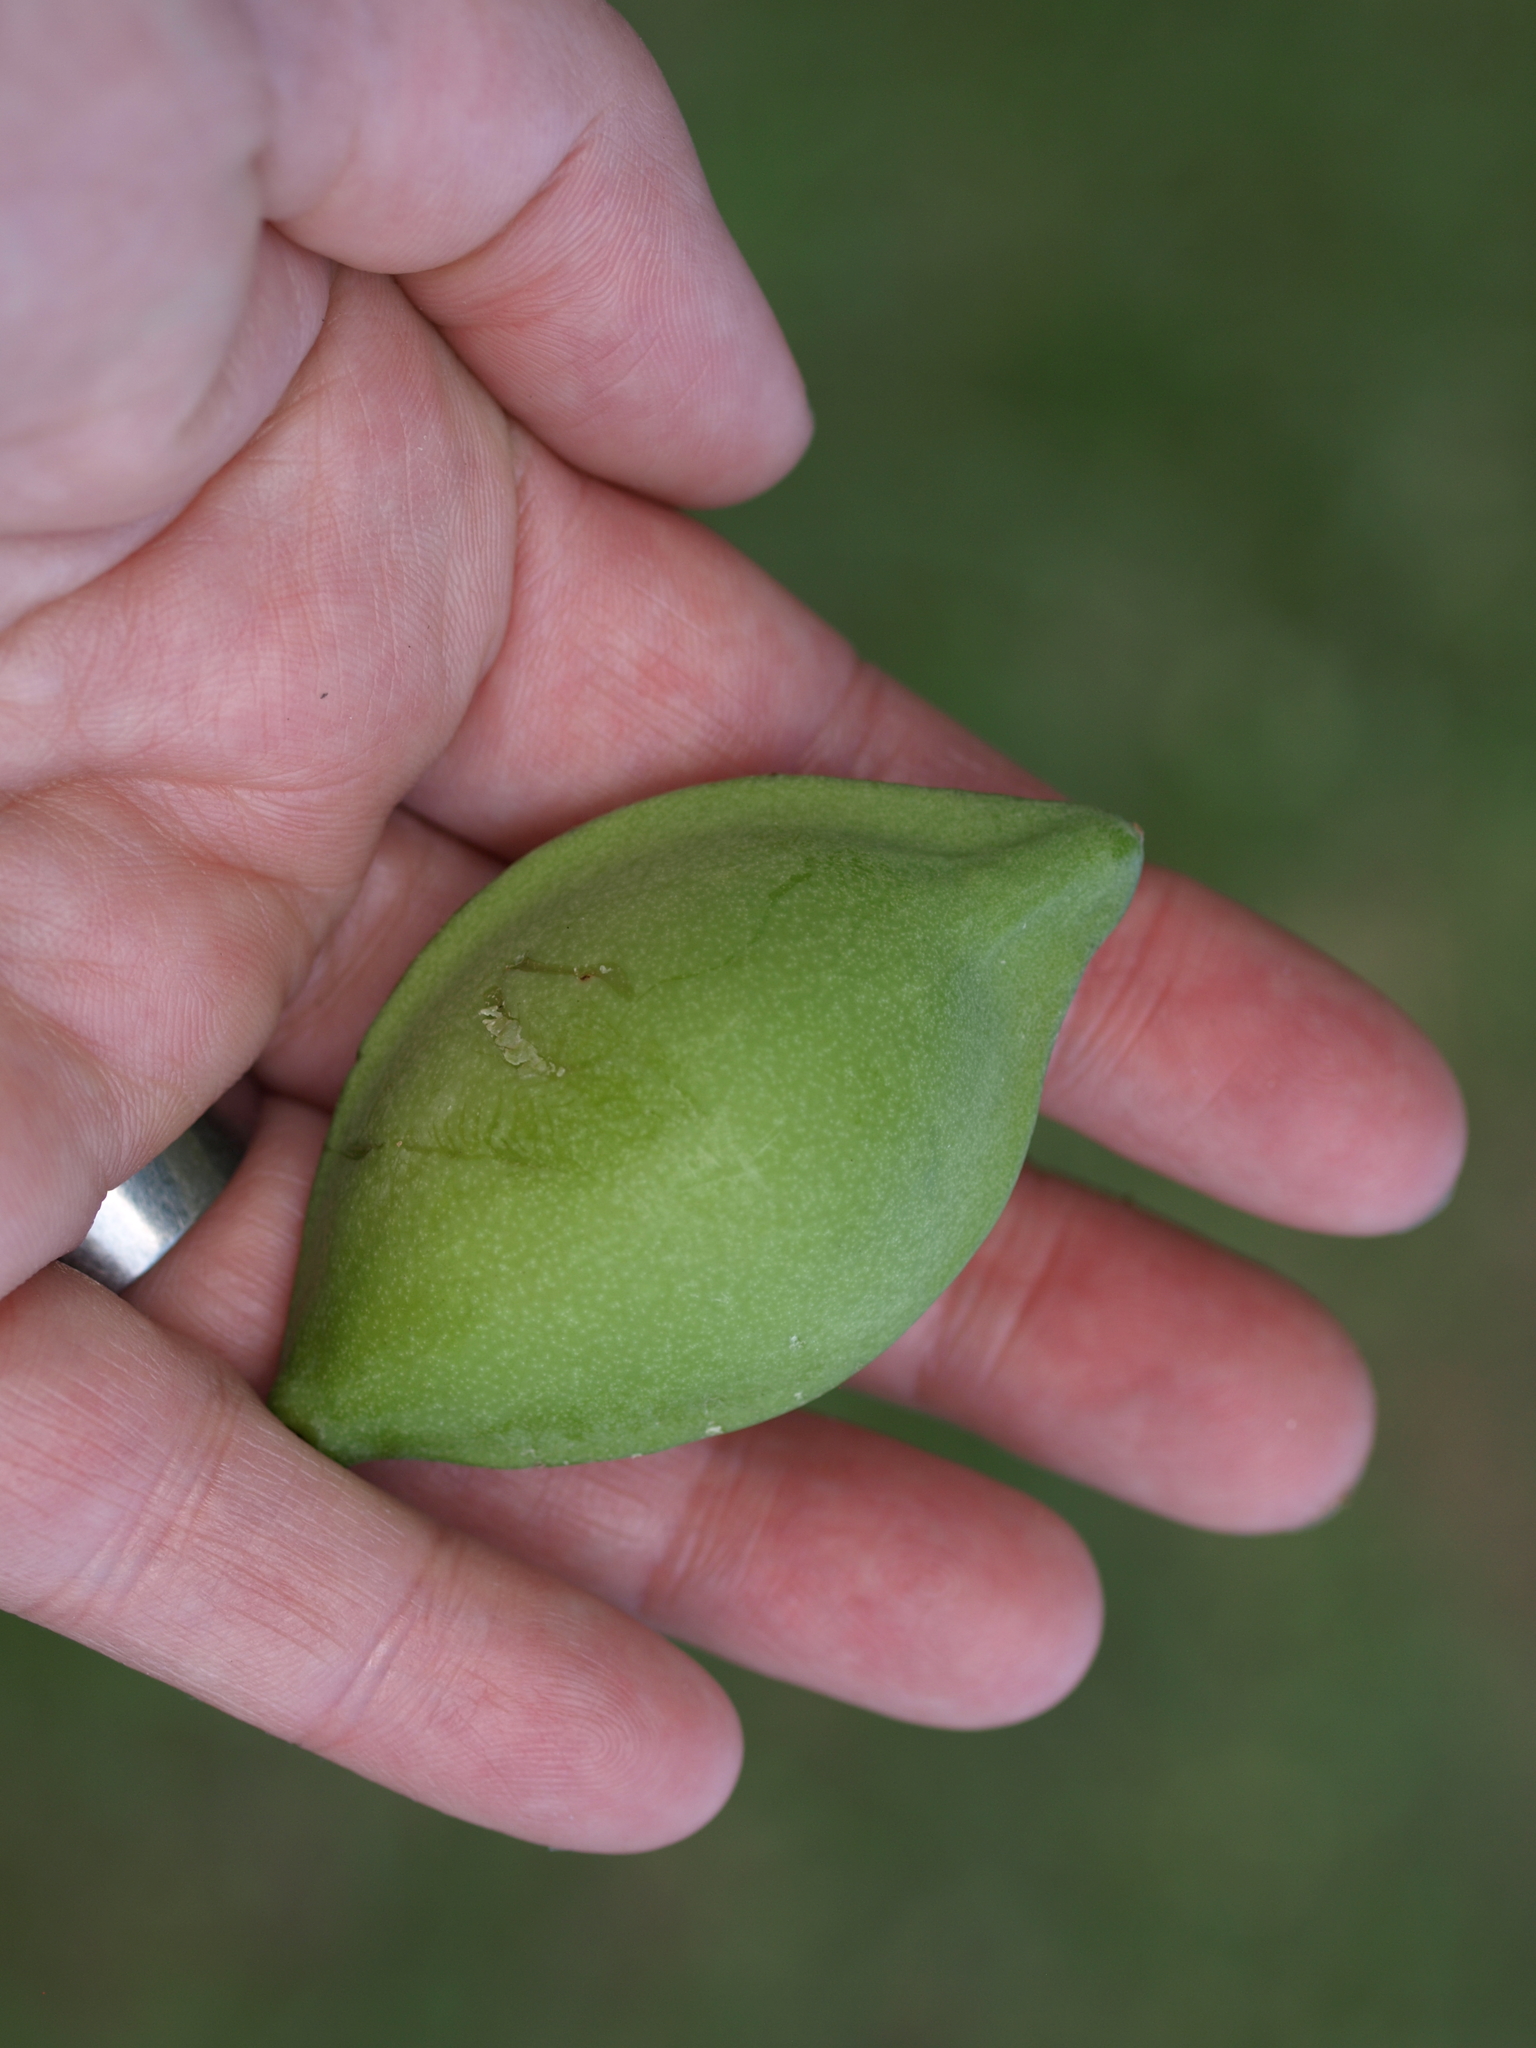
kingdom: Plantae
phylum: Tracheophyta
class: Magnoliopsida
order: Myrtales
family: Combretaceae
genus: Terminalia
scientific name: Terminalia catappa
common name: Tropical almond
